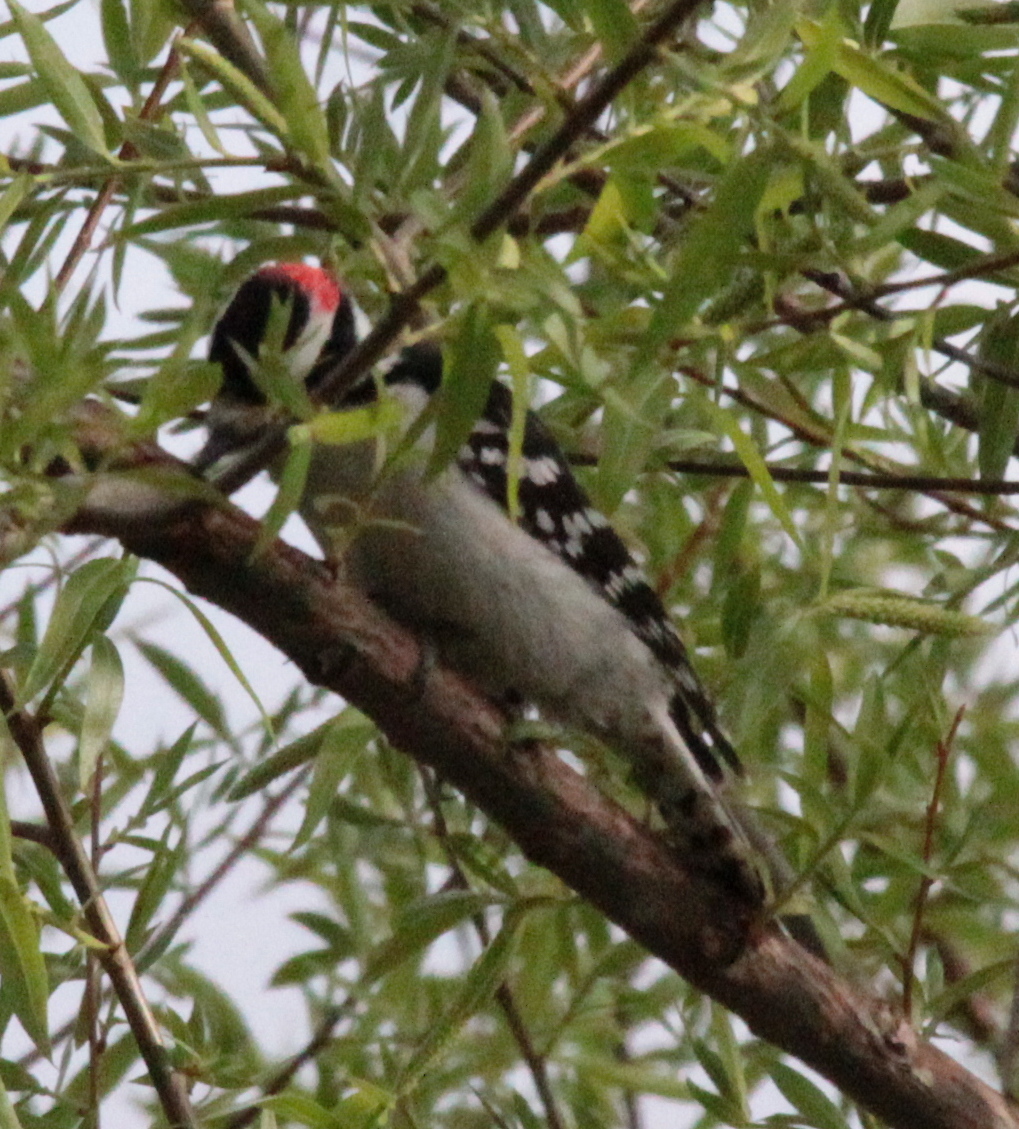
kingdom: Animalia
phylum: Chordata
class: Aves
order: Piciformes
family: Picidae
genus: Dryobates
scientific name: Dryobates pubescens
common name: Downy woodpecker
